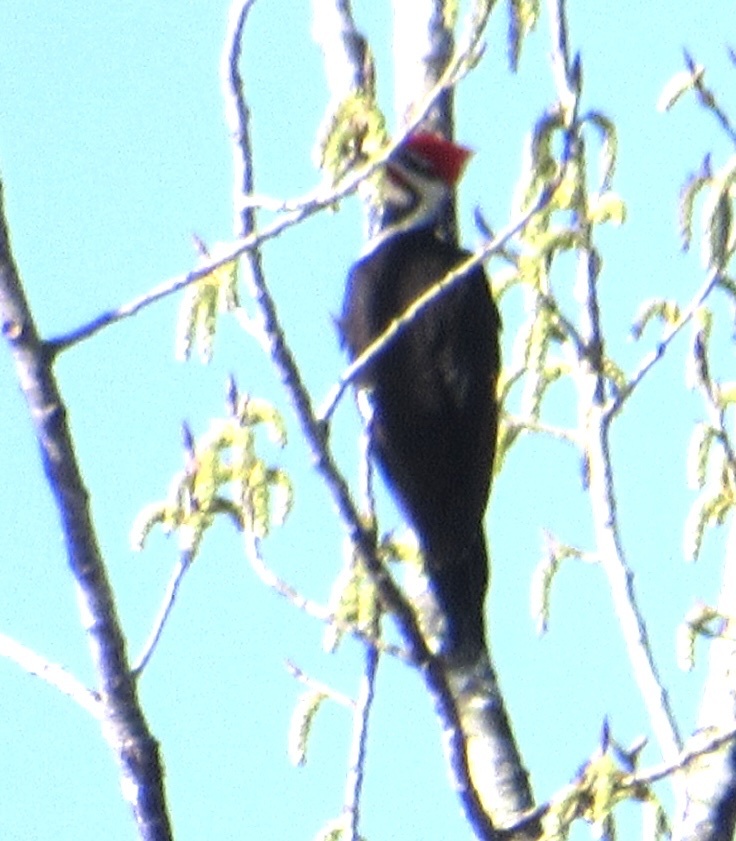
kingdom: Animalia
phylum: Chordata
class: Aves
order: Piciformes
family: Picidae
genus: Dryocopus
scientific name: Dryocopus pileatus
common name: Pileated woodpecker
